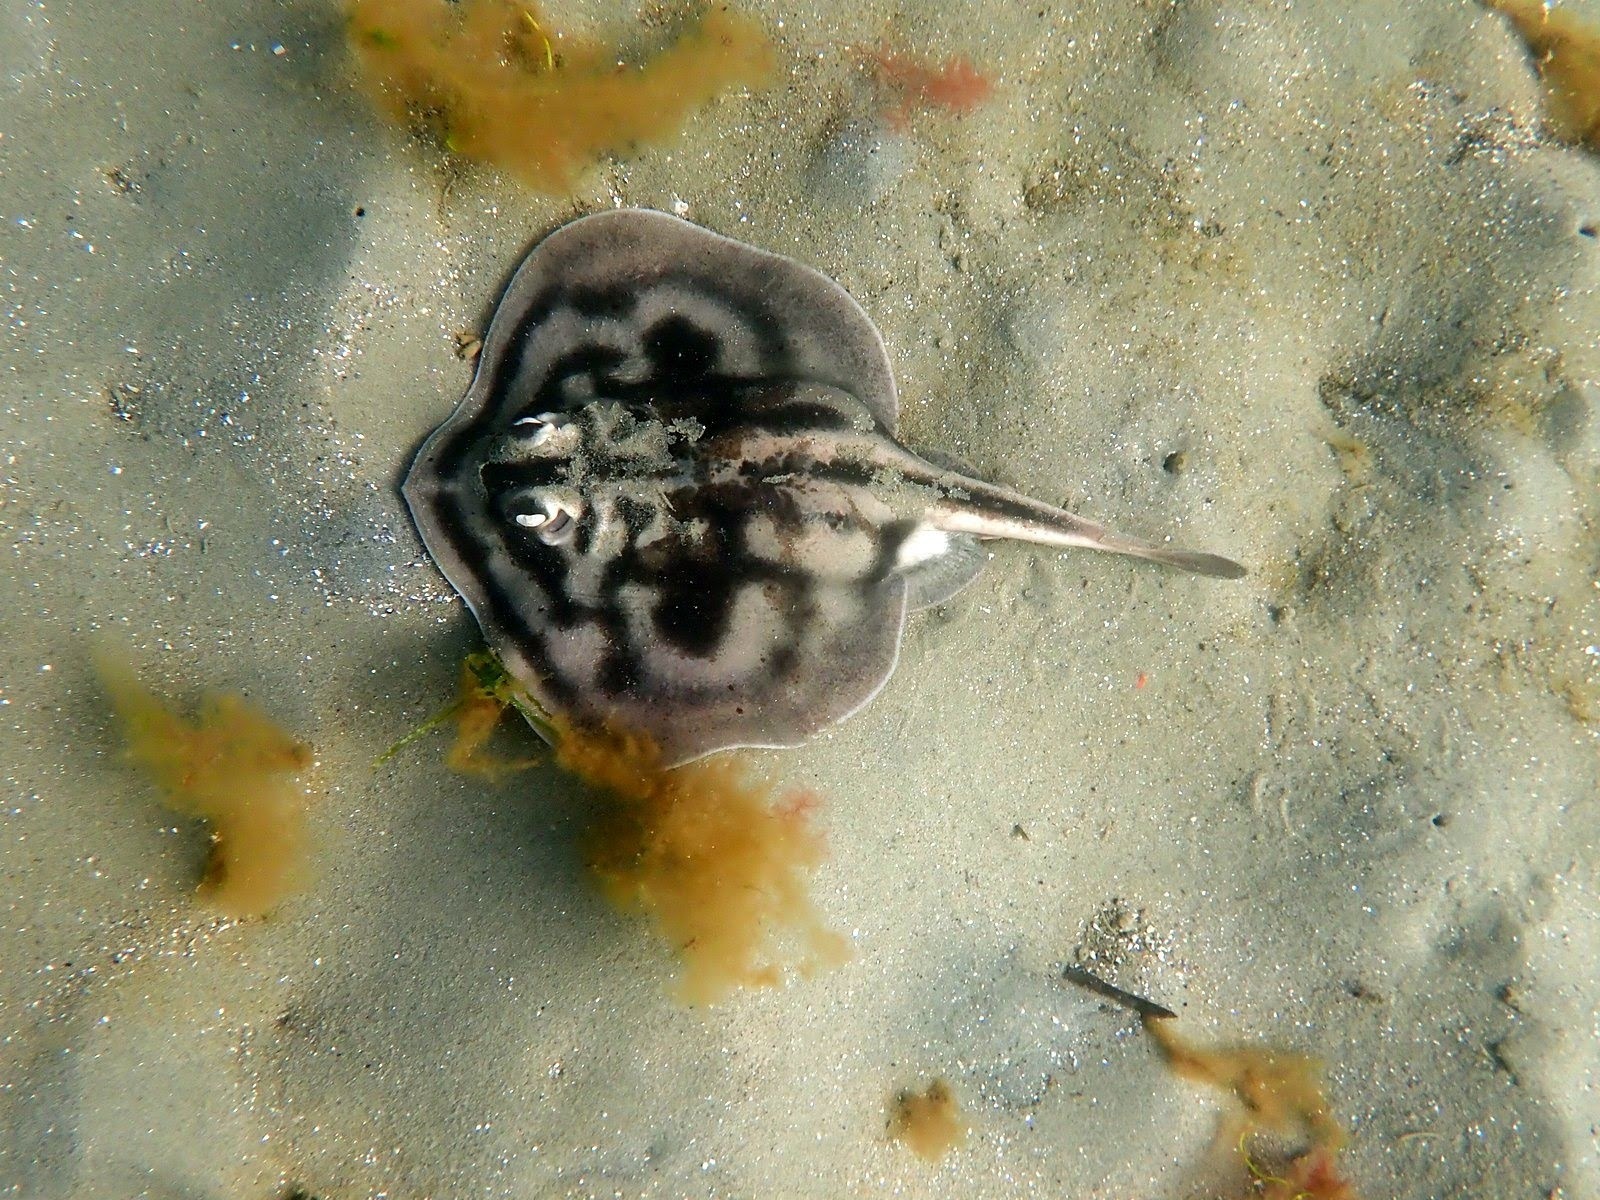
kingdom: Animalia
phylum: Chordata
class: Elasmobranchii
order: Myliobatiformes
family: Urolophidae
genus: Urolophus
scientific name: Urolophus cruciatus
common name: Banded stingaree
